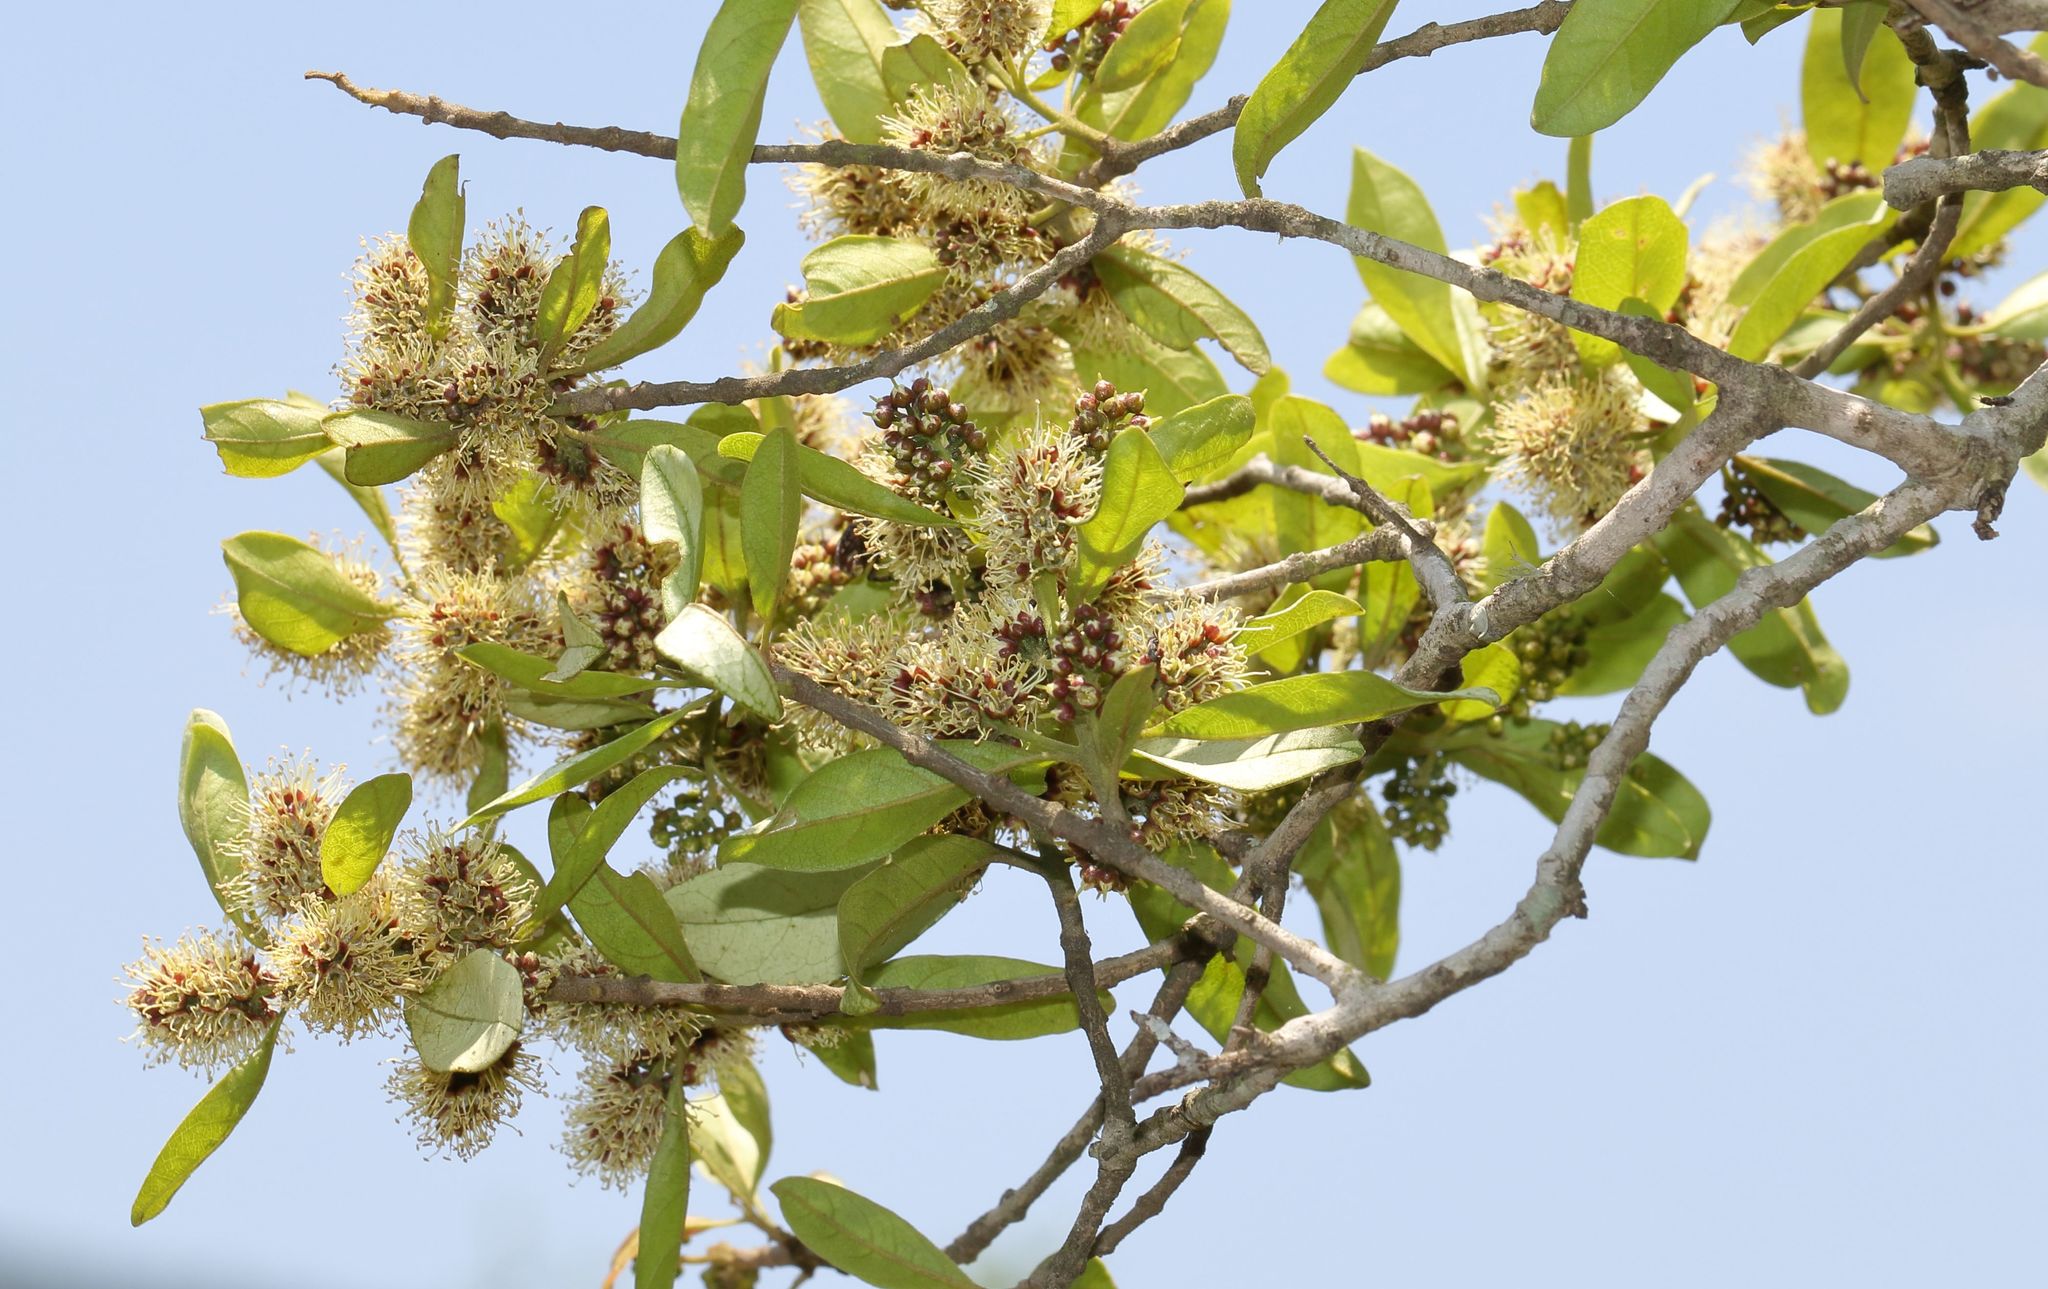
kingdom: Plantae
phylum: Tracheophyta
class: Magnoliopsida
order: Myrtales
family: Combretaceae
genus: Combretum
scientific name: Combretum kraussii
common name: Forest bushwillow
